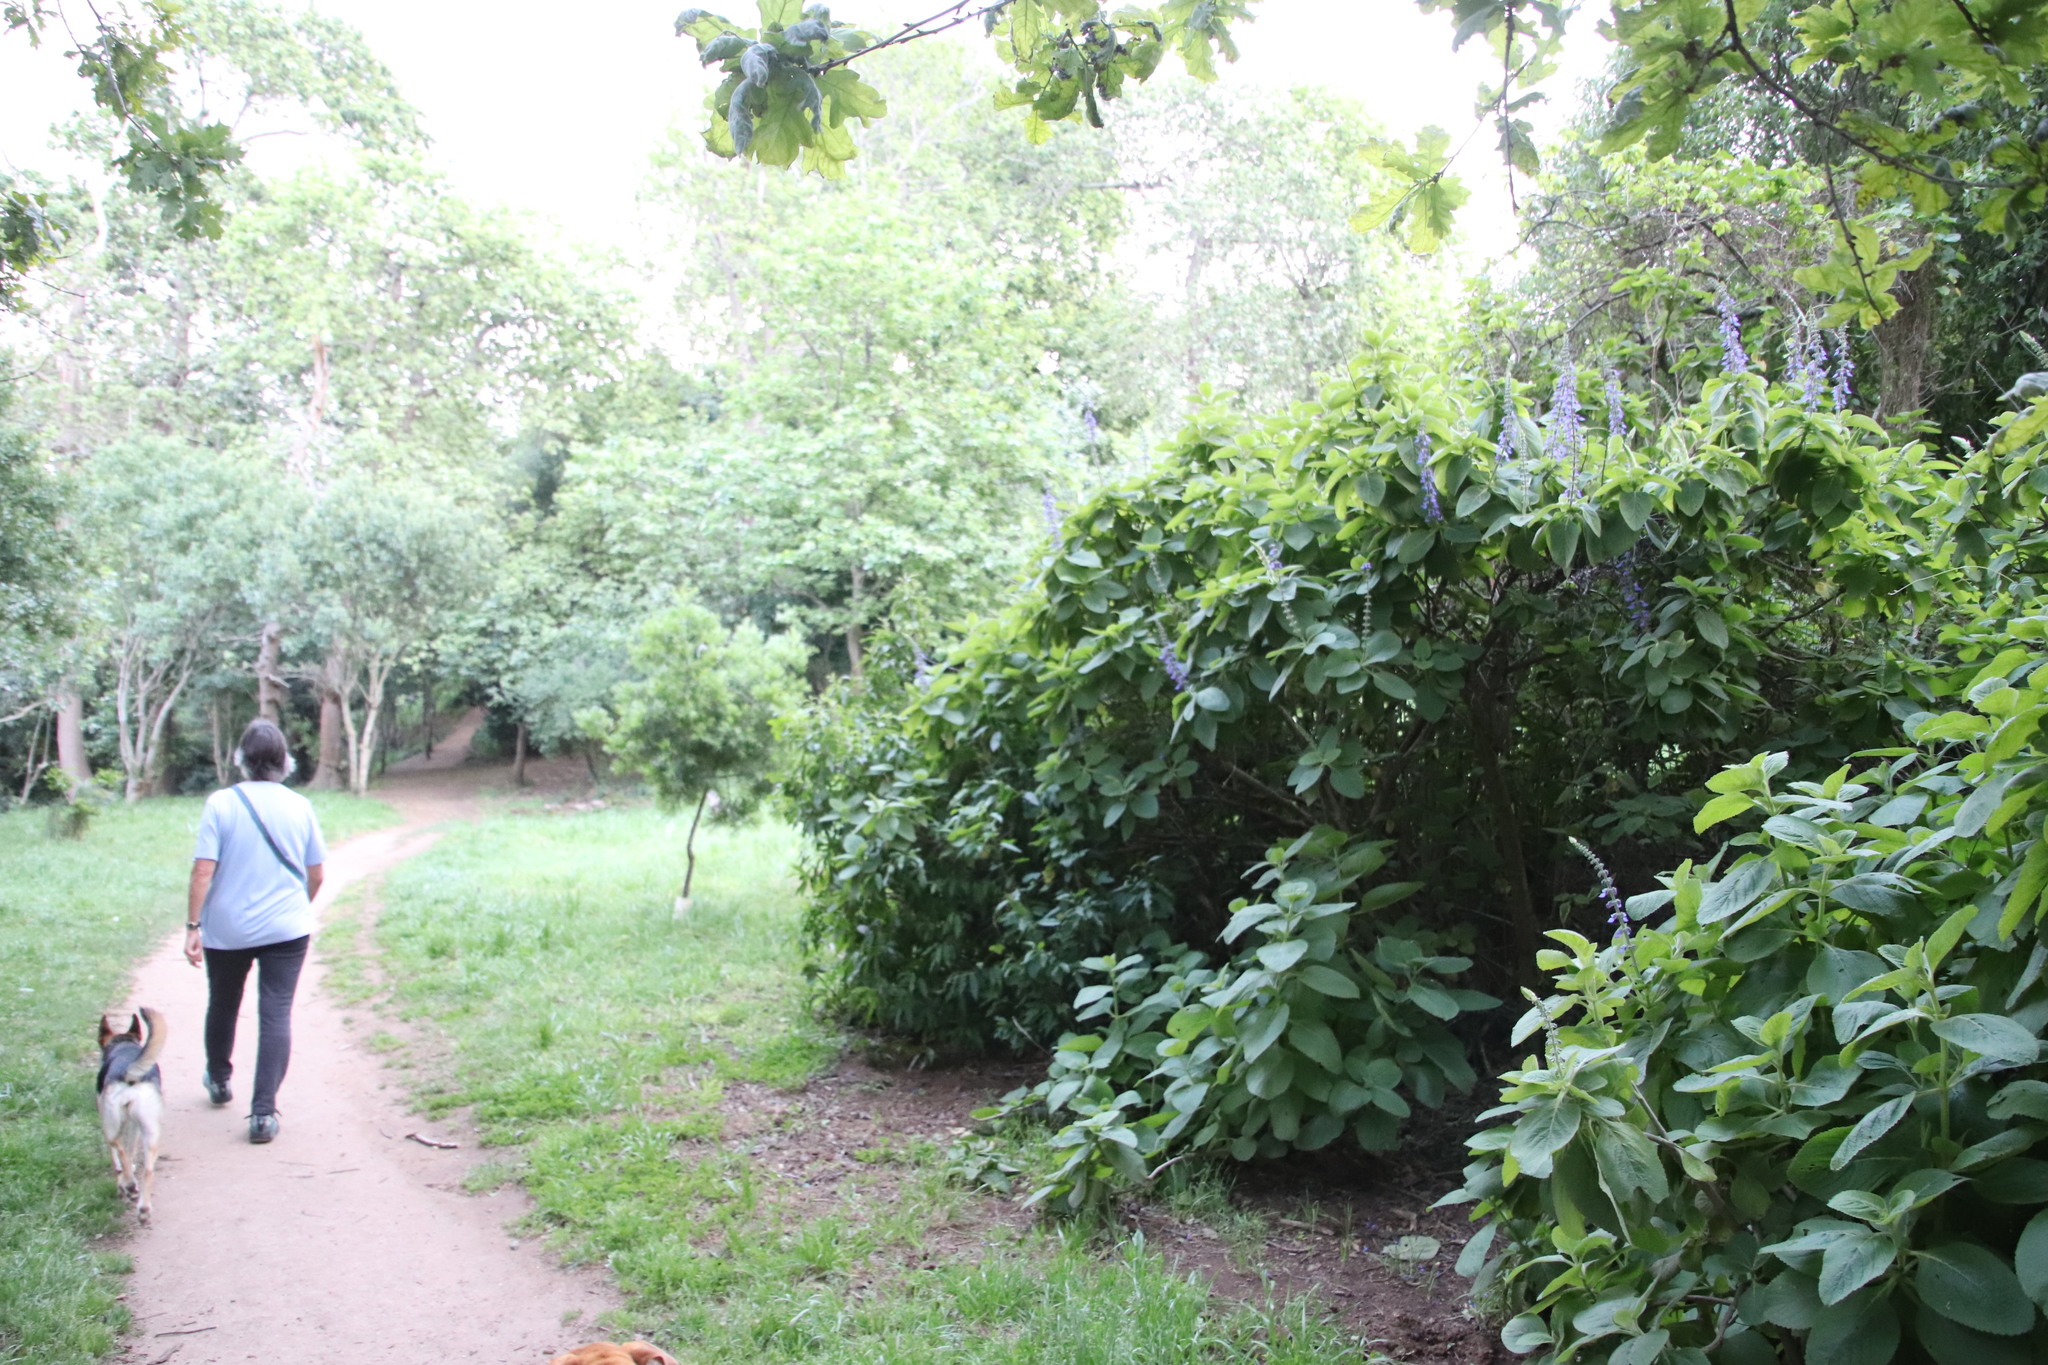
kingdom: Plantae
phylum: Tracheophyta
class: Magnoliopsida
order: Lamiales
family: Lamiaceae
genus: Coleus
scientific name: Coleus barbatus
